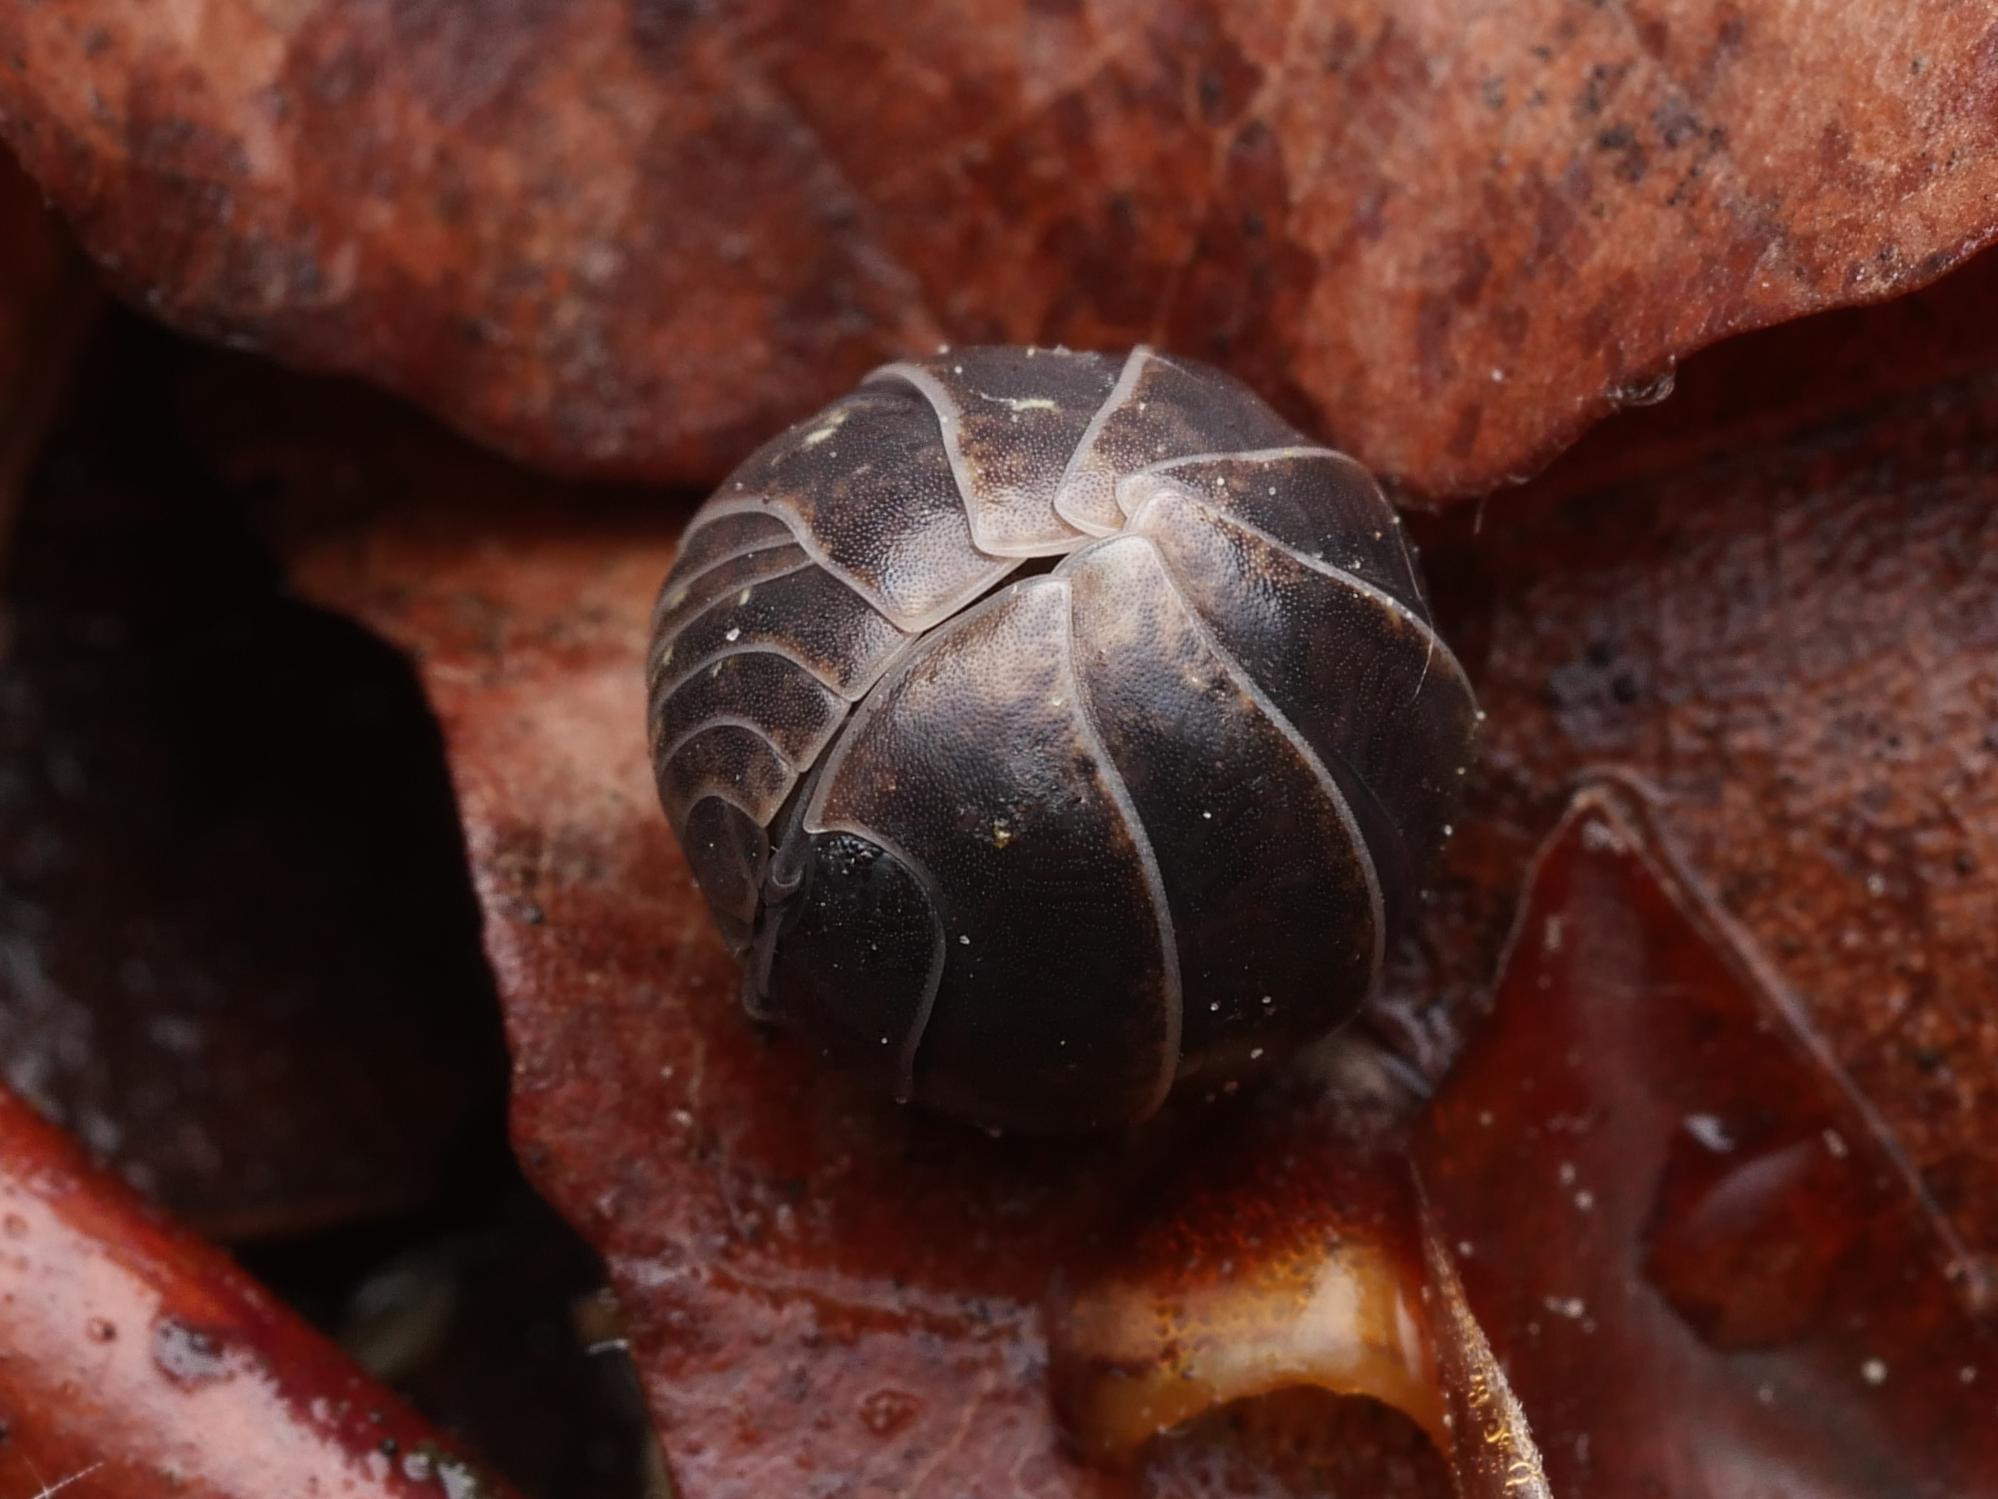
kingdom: Animalia
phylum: Arthropoda
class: Malacostraca
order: Isopoda
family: Armadillidiidae
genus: Armadillidium
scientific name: Armadillidium vulgare
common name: Common pill woodlouse
